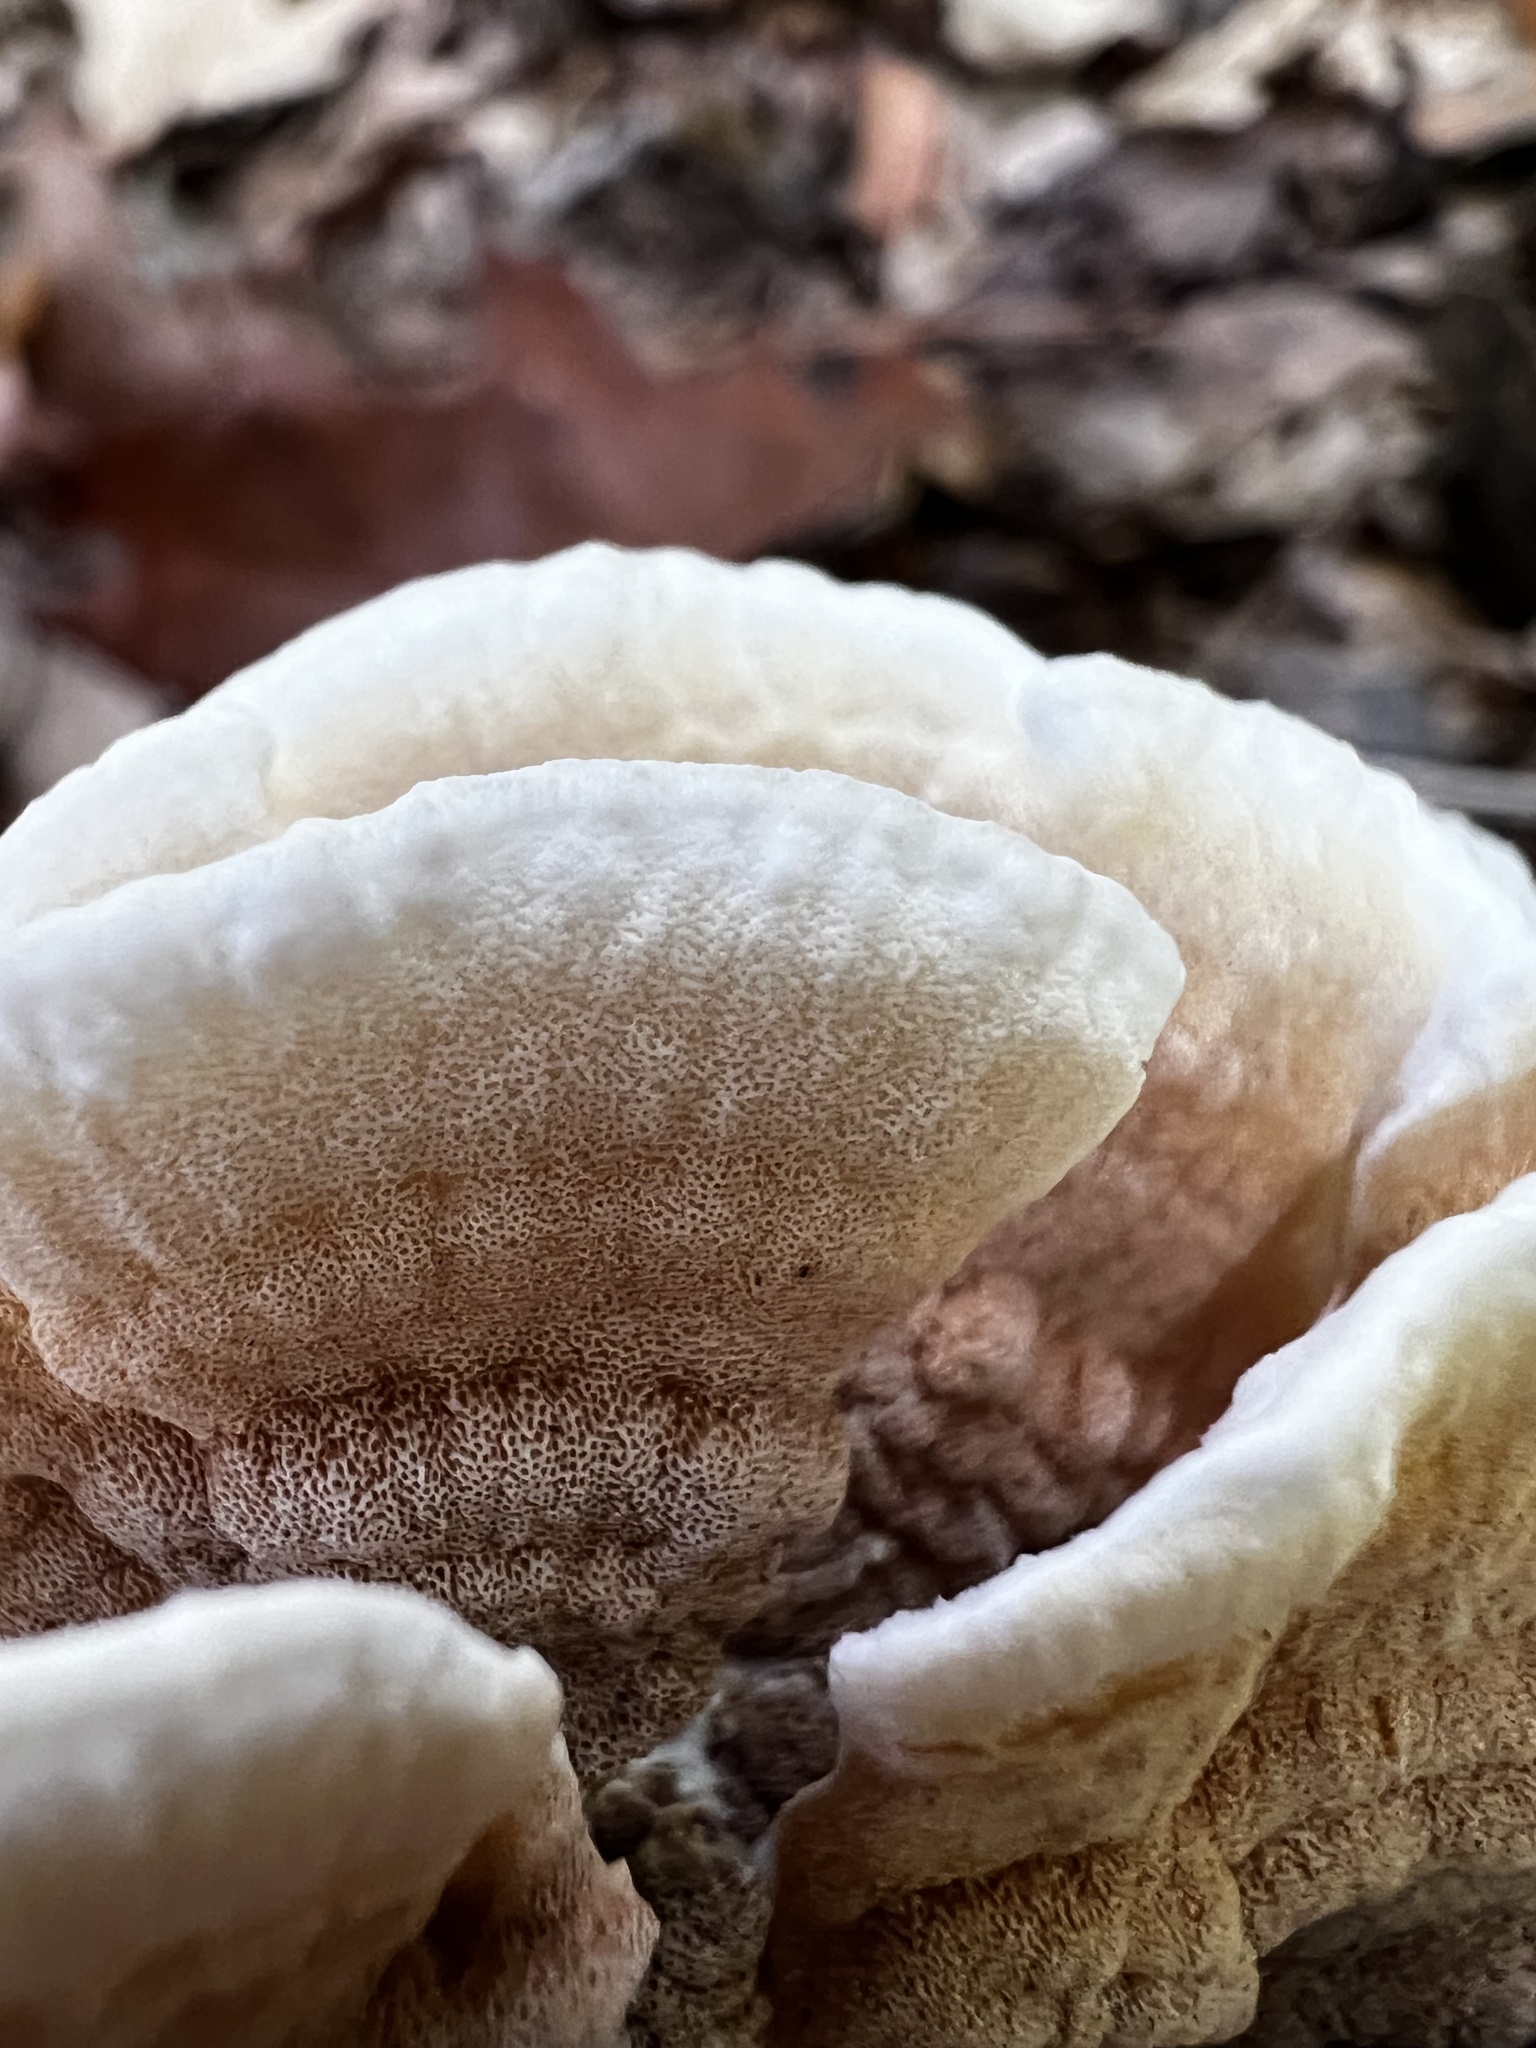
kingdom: Fungi
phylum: Basidiomycota
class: Agaricomycetes
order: Polyporales
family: Irpicaceae
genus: Vitreoporus
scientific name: Vitreoporus dichrous
